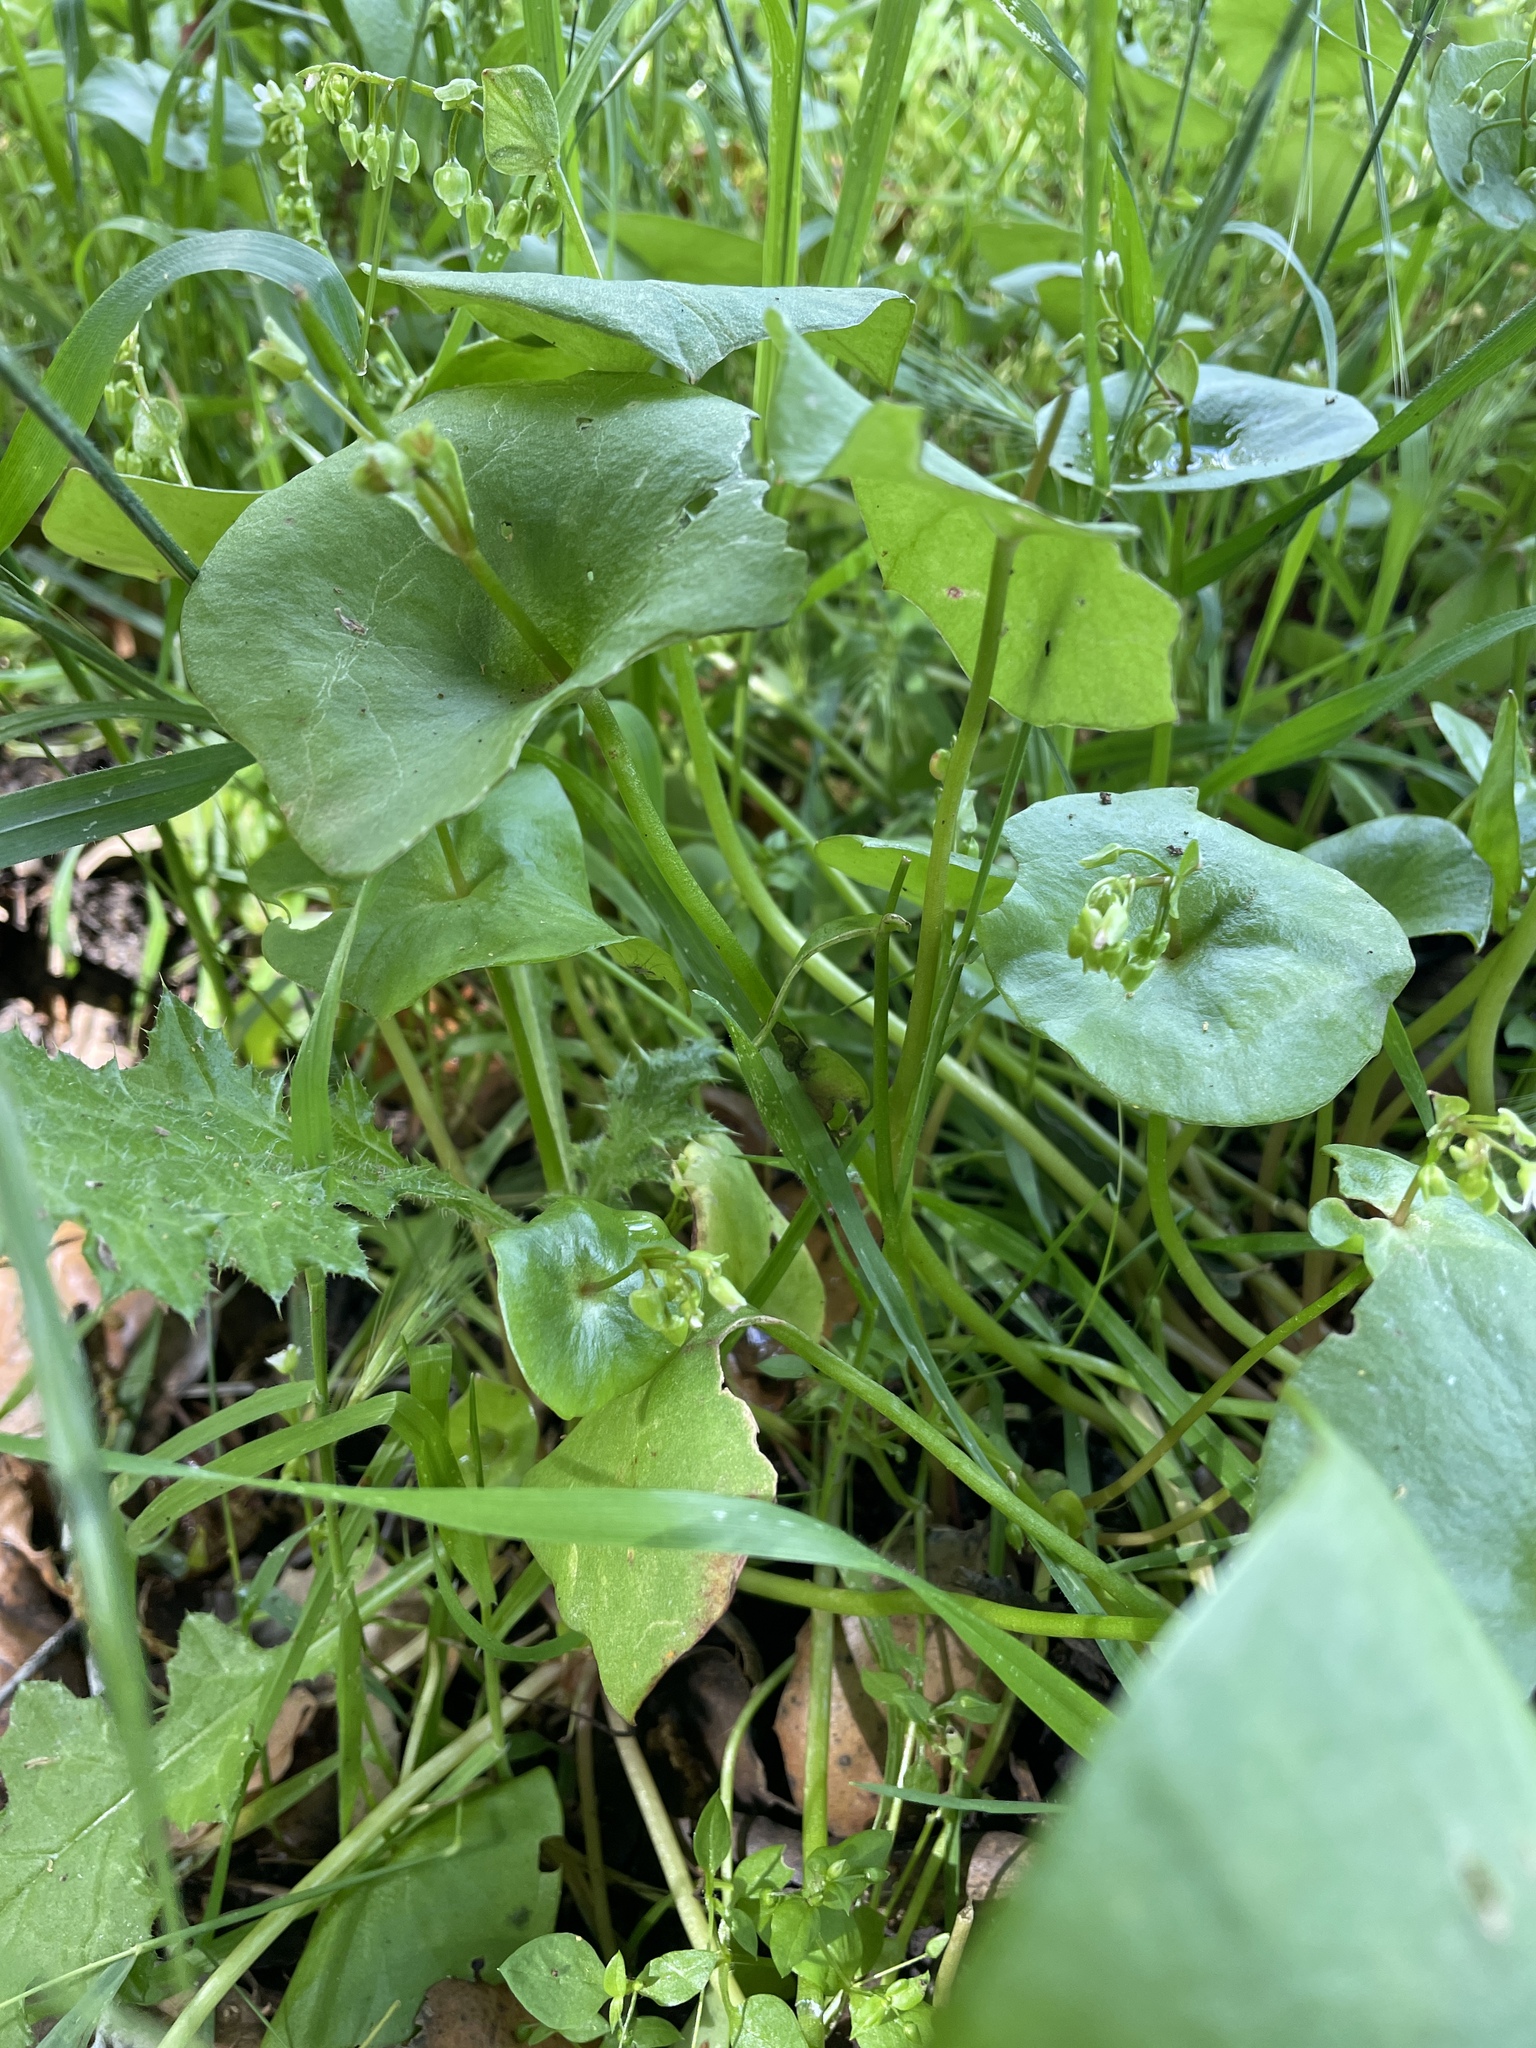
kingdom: Plantae
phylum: Tracheophyta
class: Magnoliopsida
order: Caryophyllales
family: Montiaceae
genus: Claytonia
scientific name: Claytonia perfoliata
